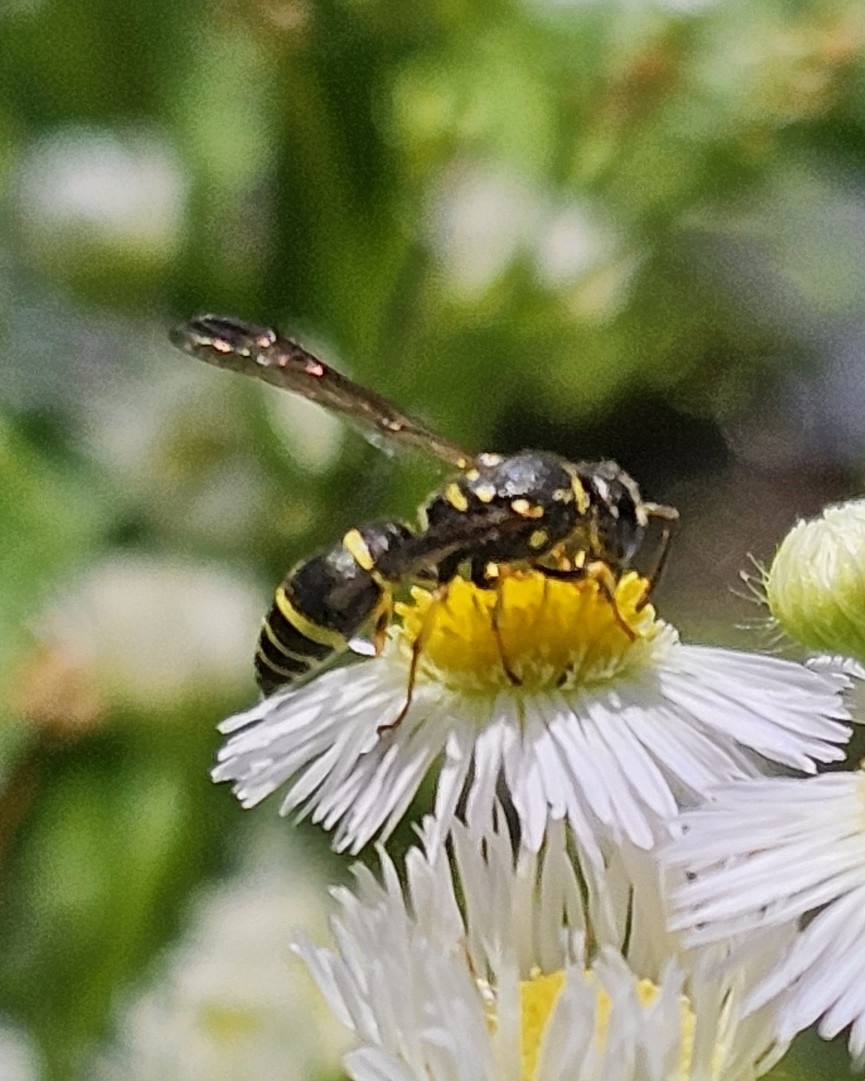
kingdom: Animalia
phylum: Arthropoda
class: Insecta
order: Hymenoptera
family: Vespidae
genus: Ancistrocerus
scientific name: Ancistrocerus adiabatus
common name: Bramble mason wasp
